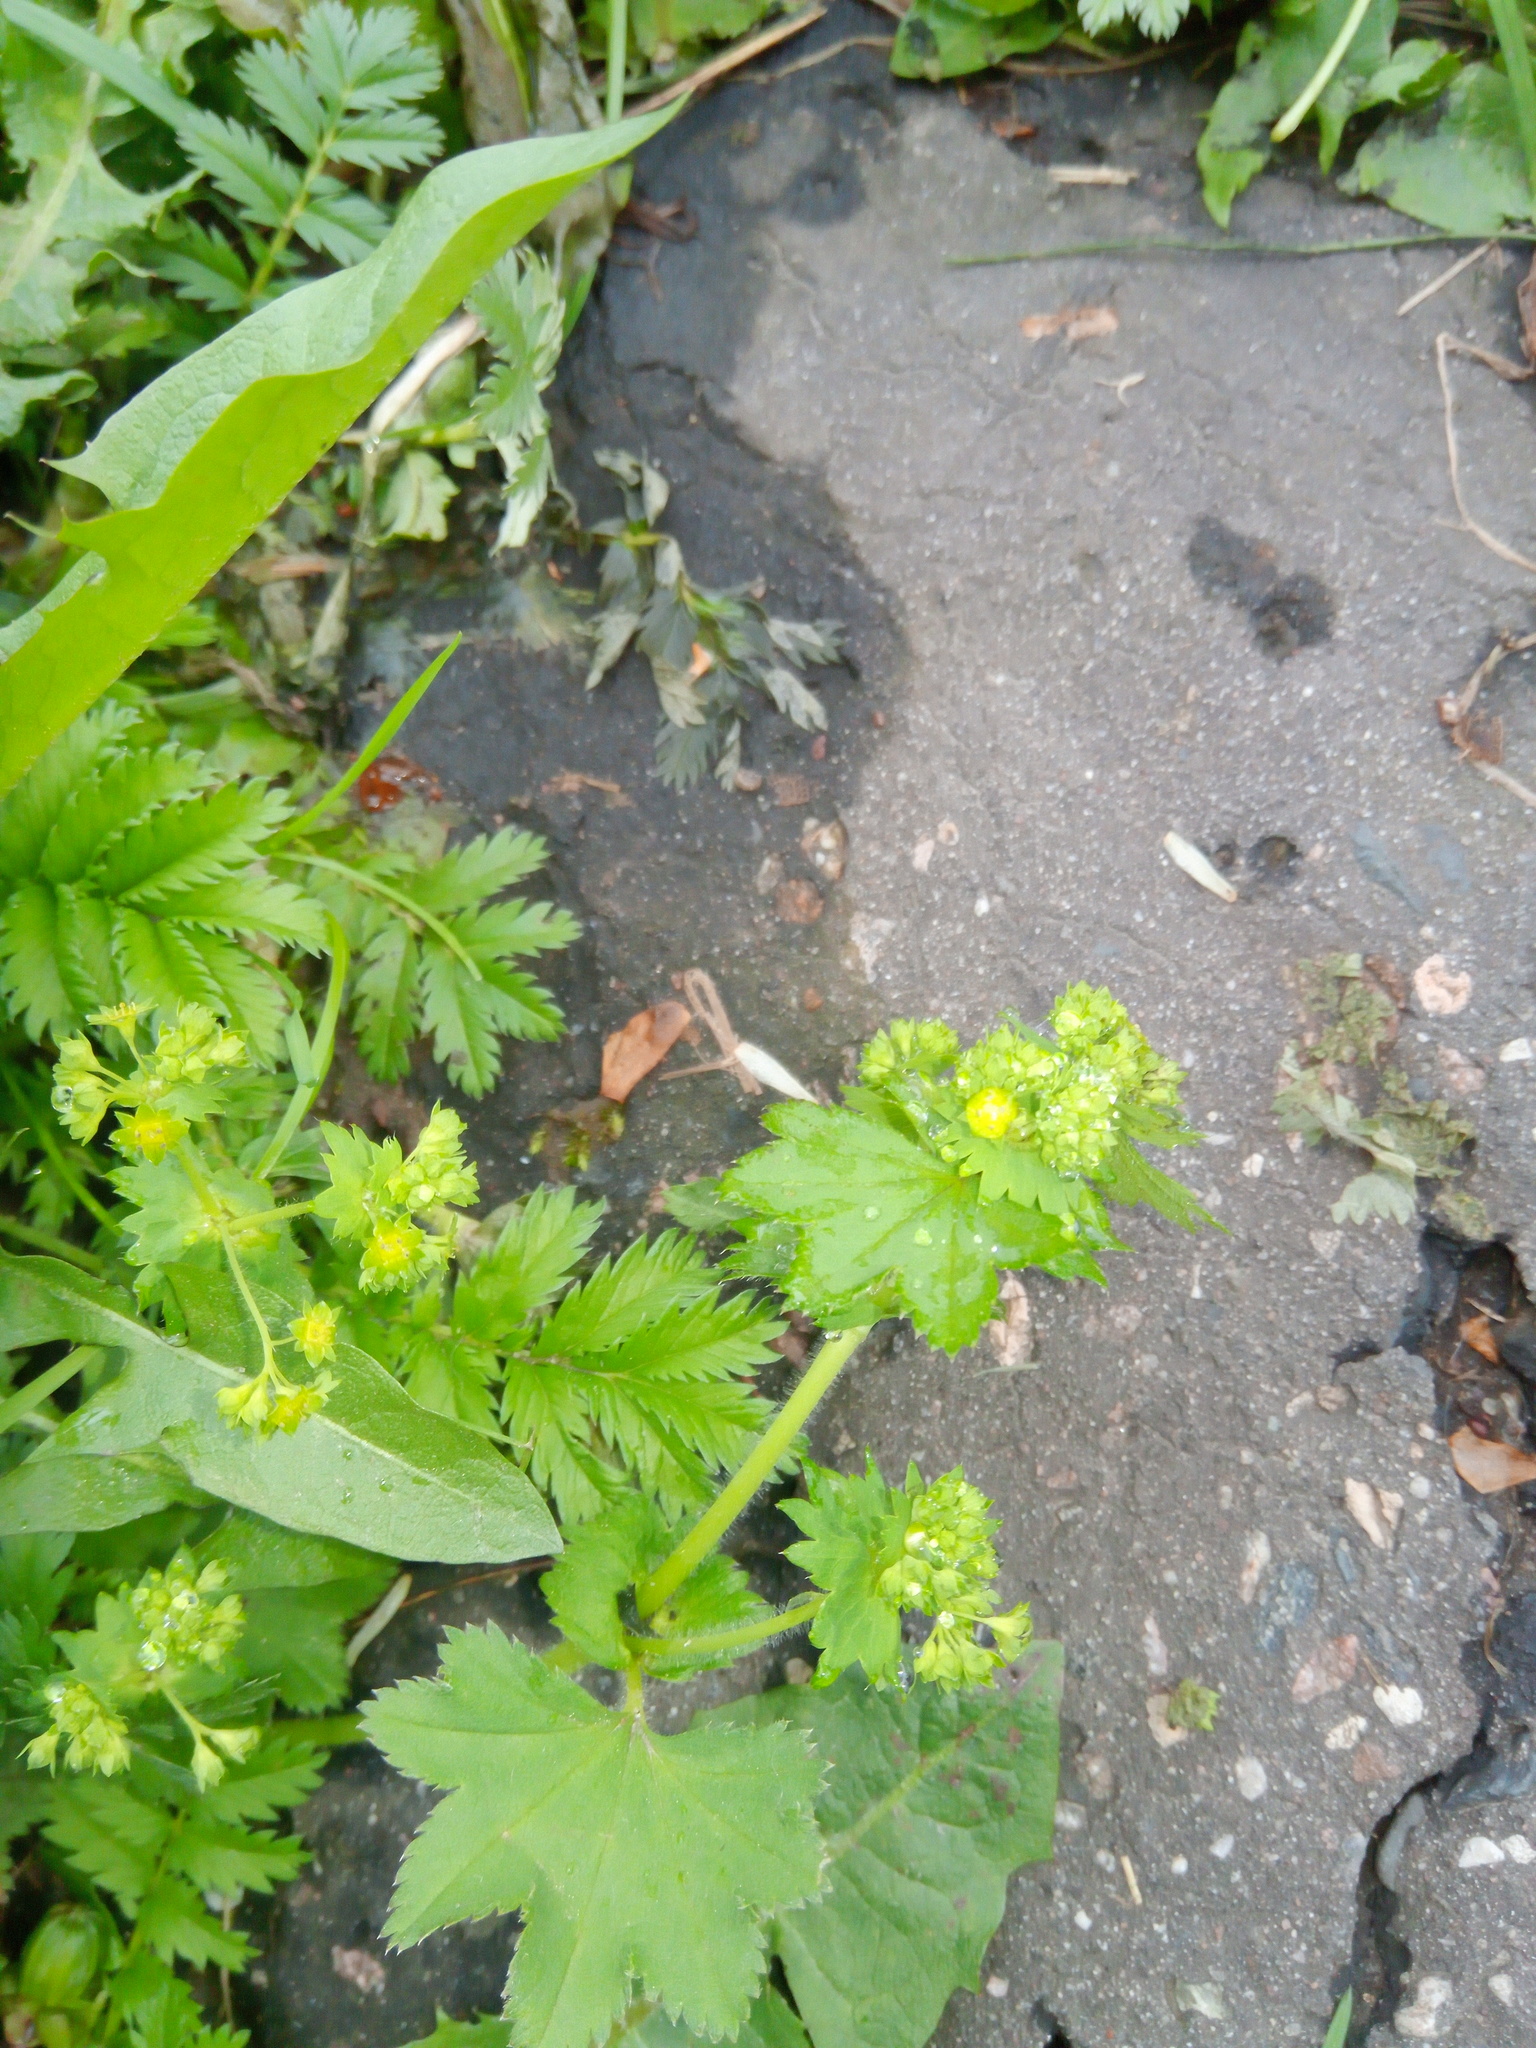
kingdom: Plantae
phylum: Tracheophyta
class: Magnoliopsida
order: Rosales
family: Rosaceae
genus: Alchemilla
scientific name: Alchemilla
